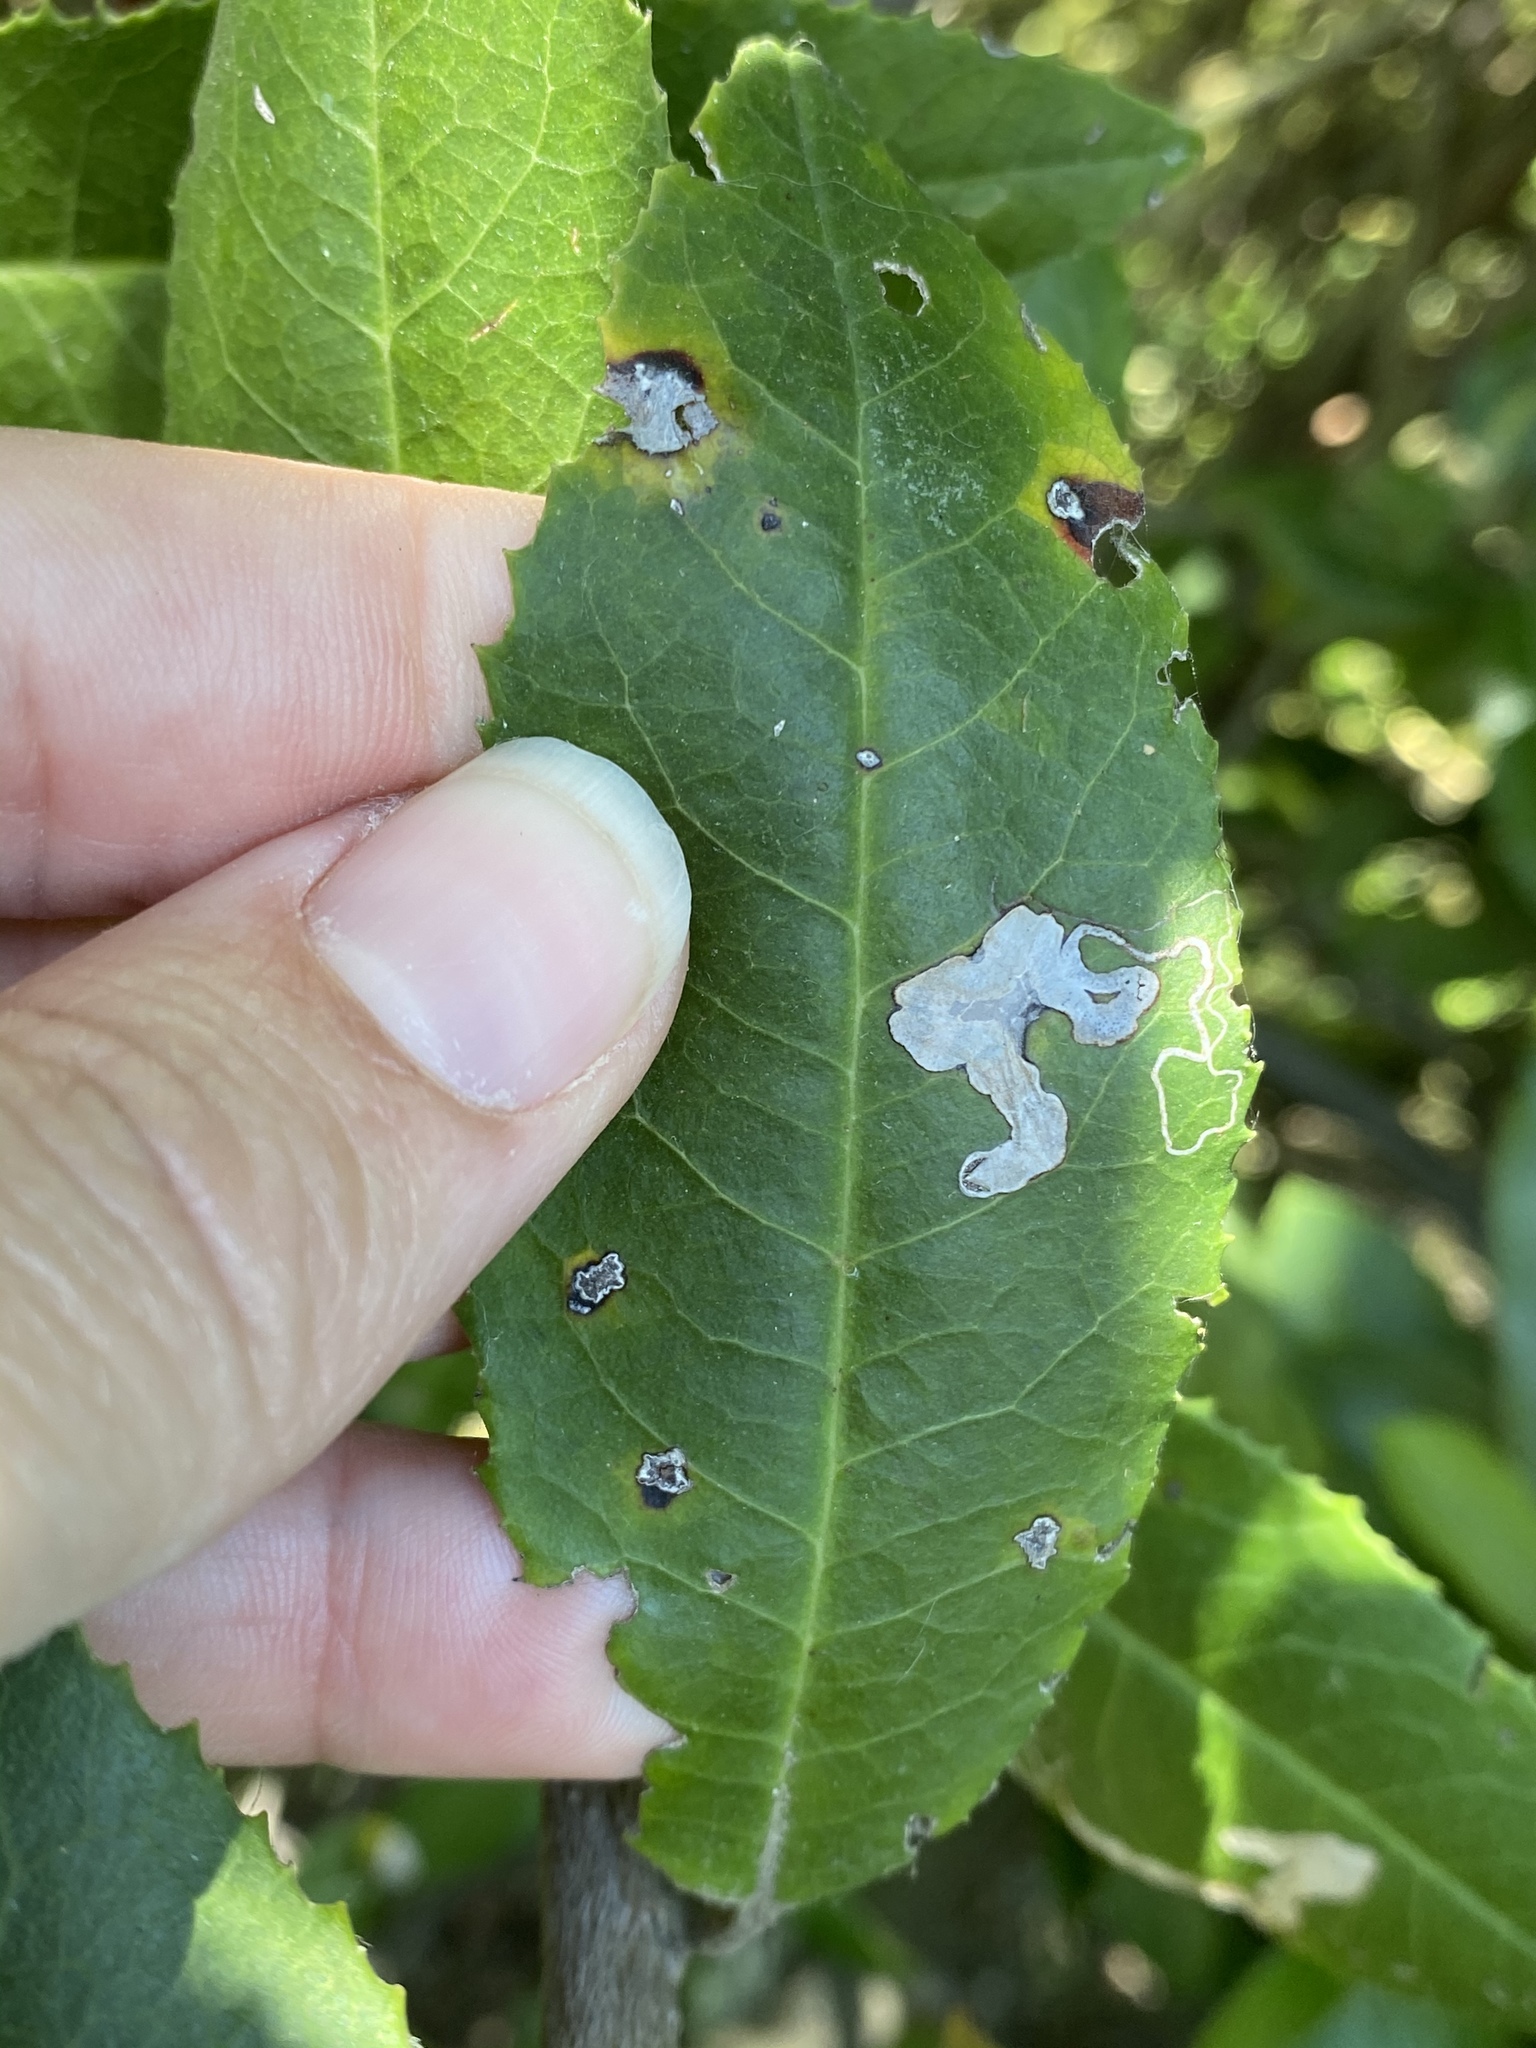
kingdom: Animalia
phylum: Arthropoda
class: Insecta
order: Lepidoptera
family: Nepticulidae
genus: Stigmella
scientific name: Stigmella heteromelis
